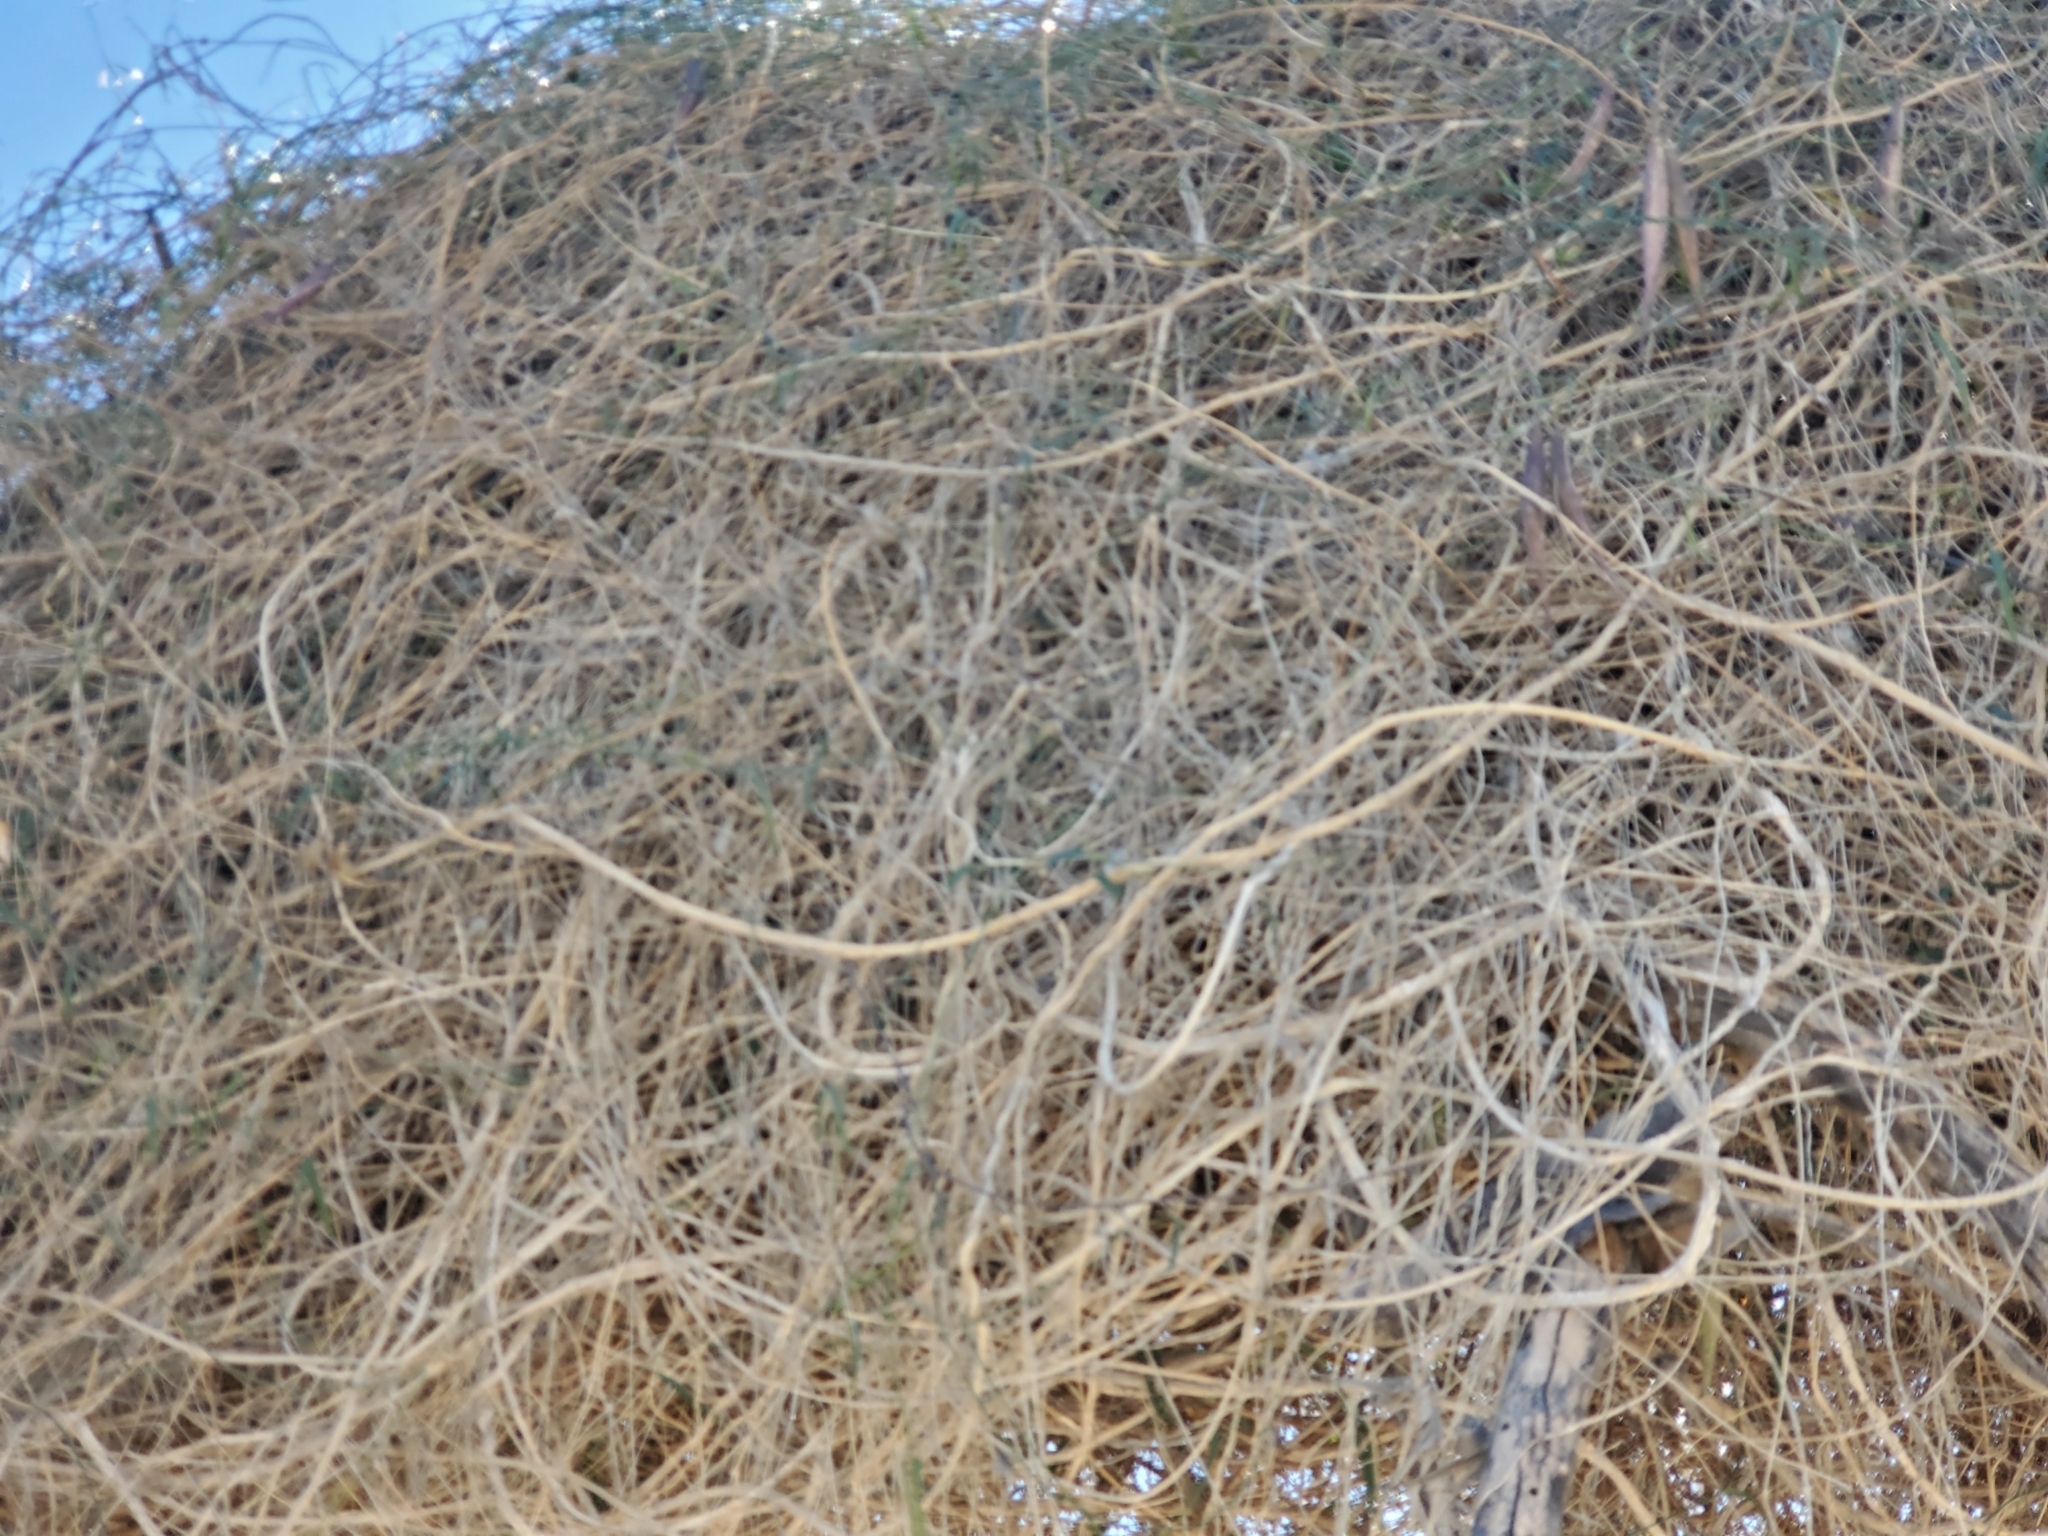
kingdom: Plantae
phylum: Tracheophyta
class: Magnoliopsida
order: Gentianales
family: Apocynaceae
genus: Funastrum
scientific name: Funastrum heterophyllum
